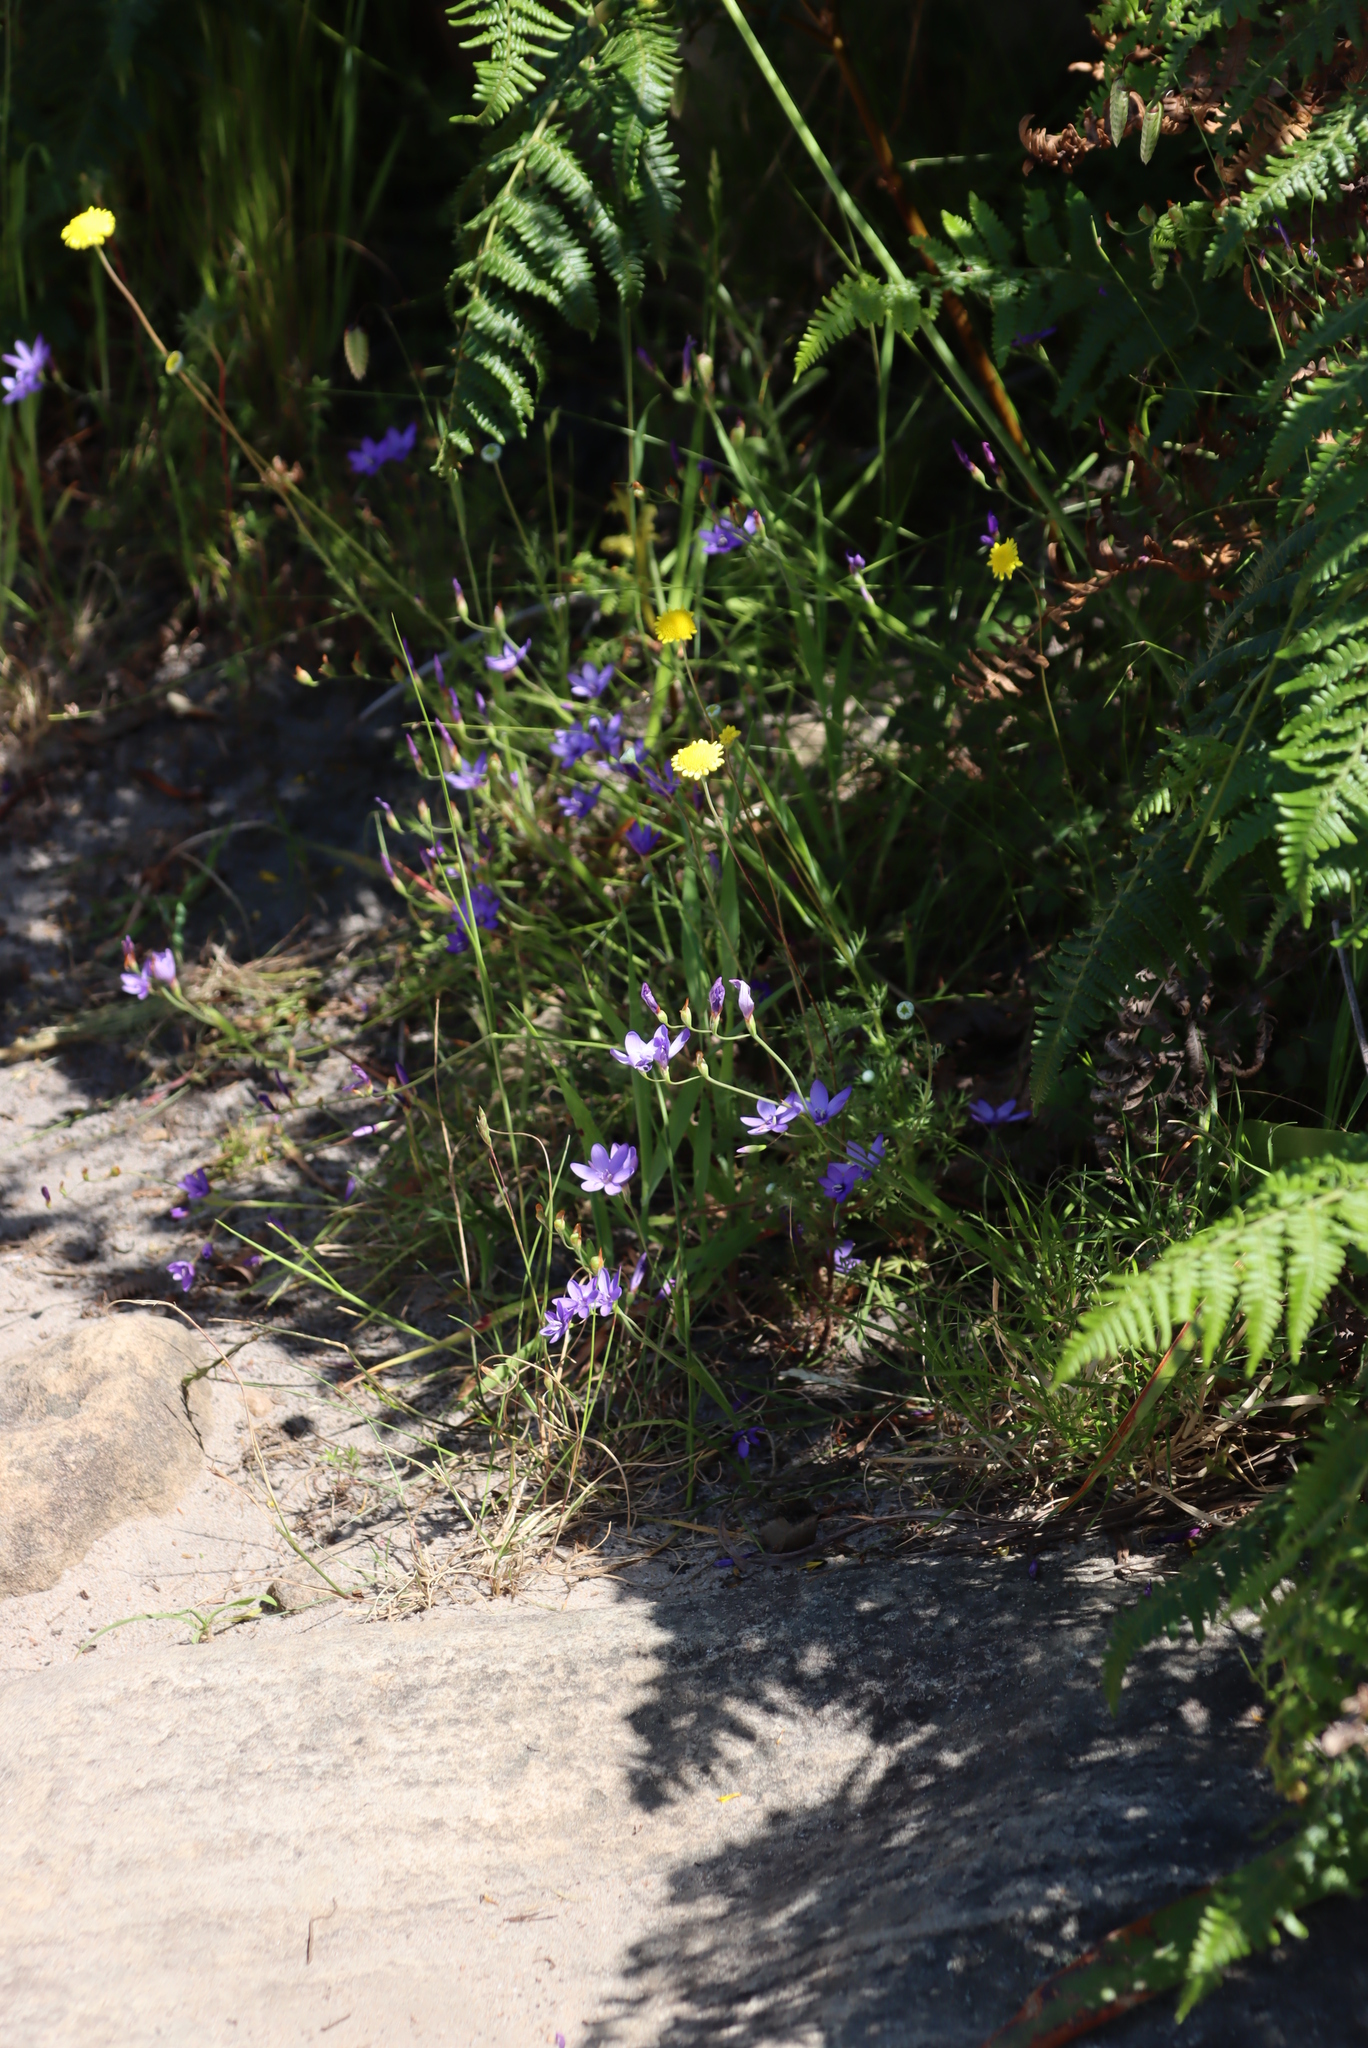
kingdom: Plantae
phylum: Tracheophyta
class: Liliopsida
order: Asparagales
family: Iridaceae
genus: Geissorhiza
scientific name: Geissorhiza aspera
